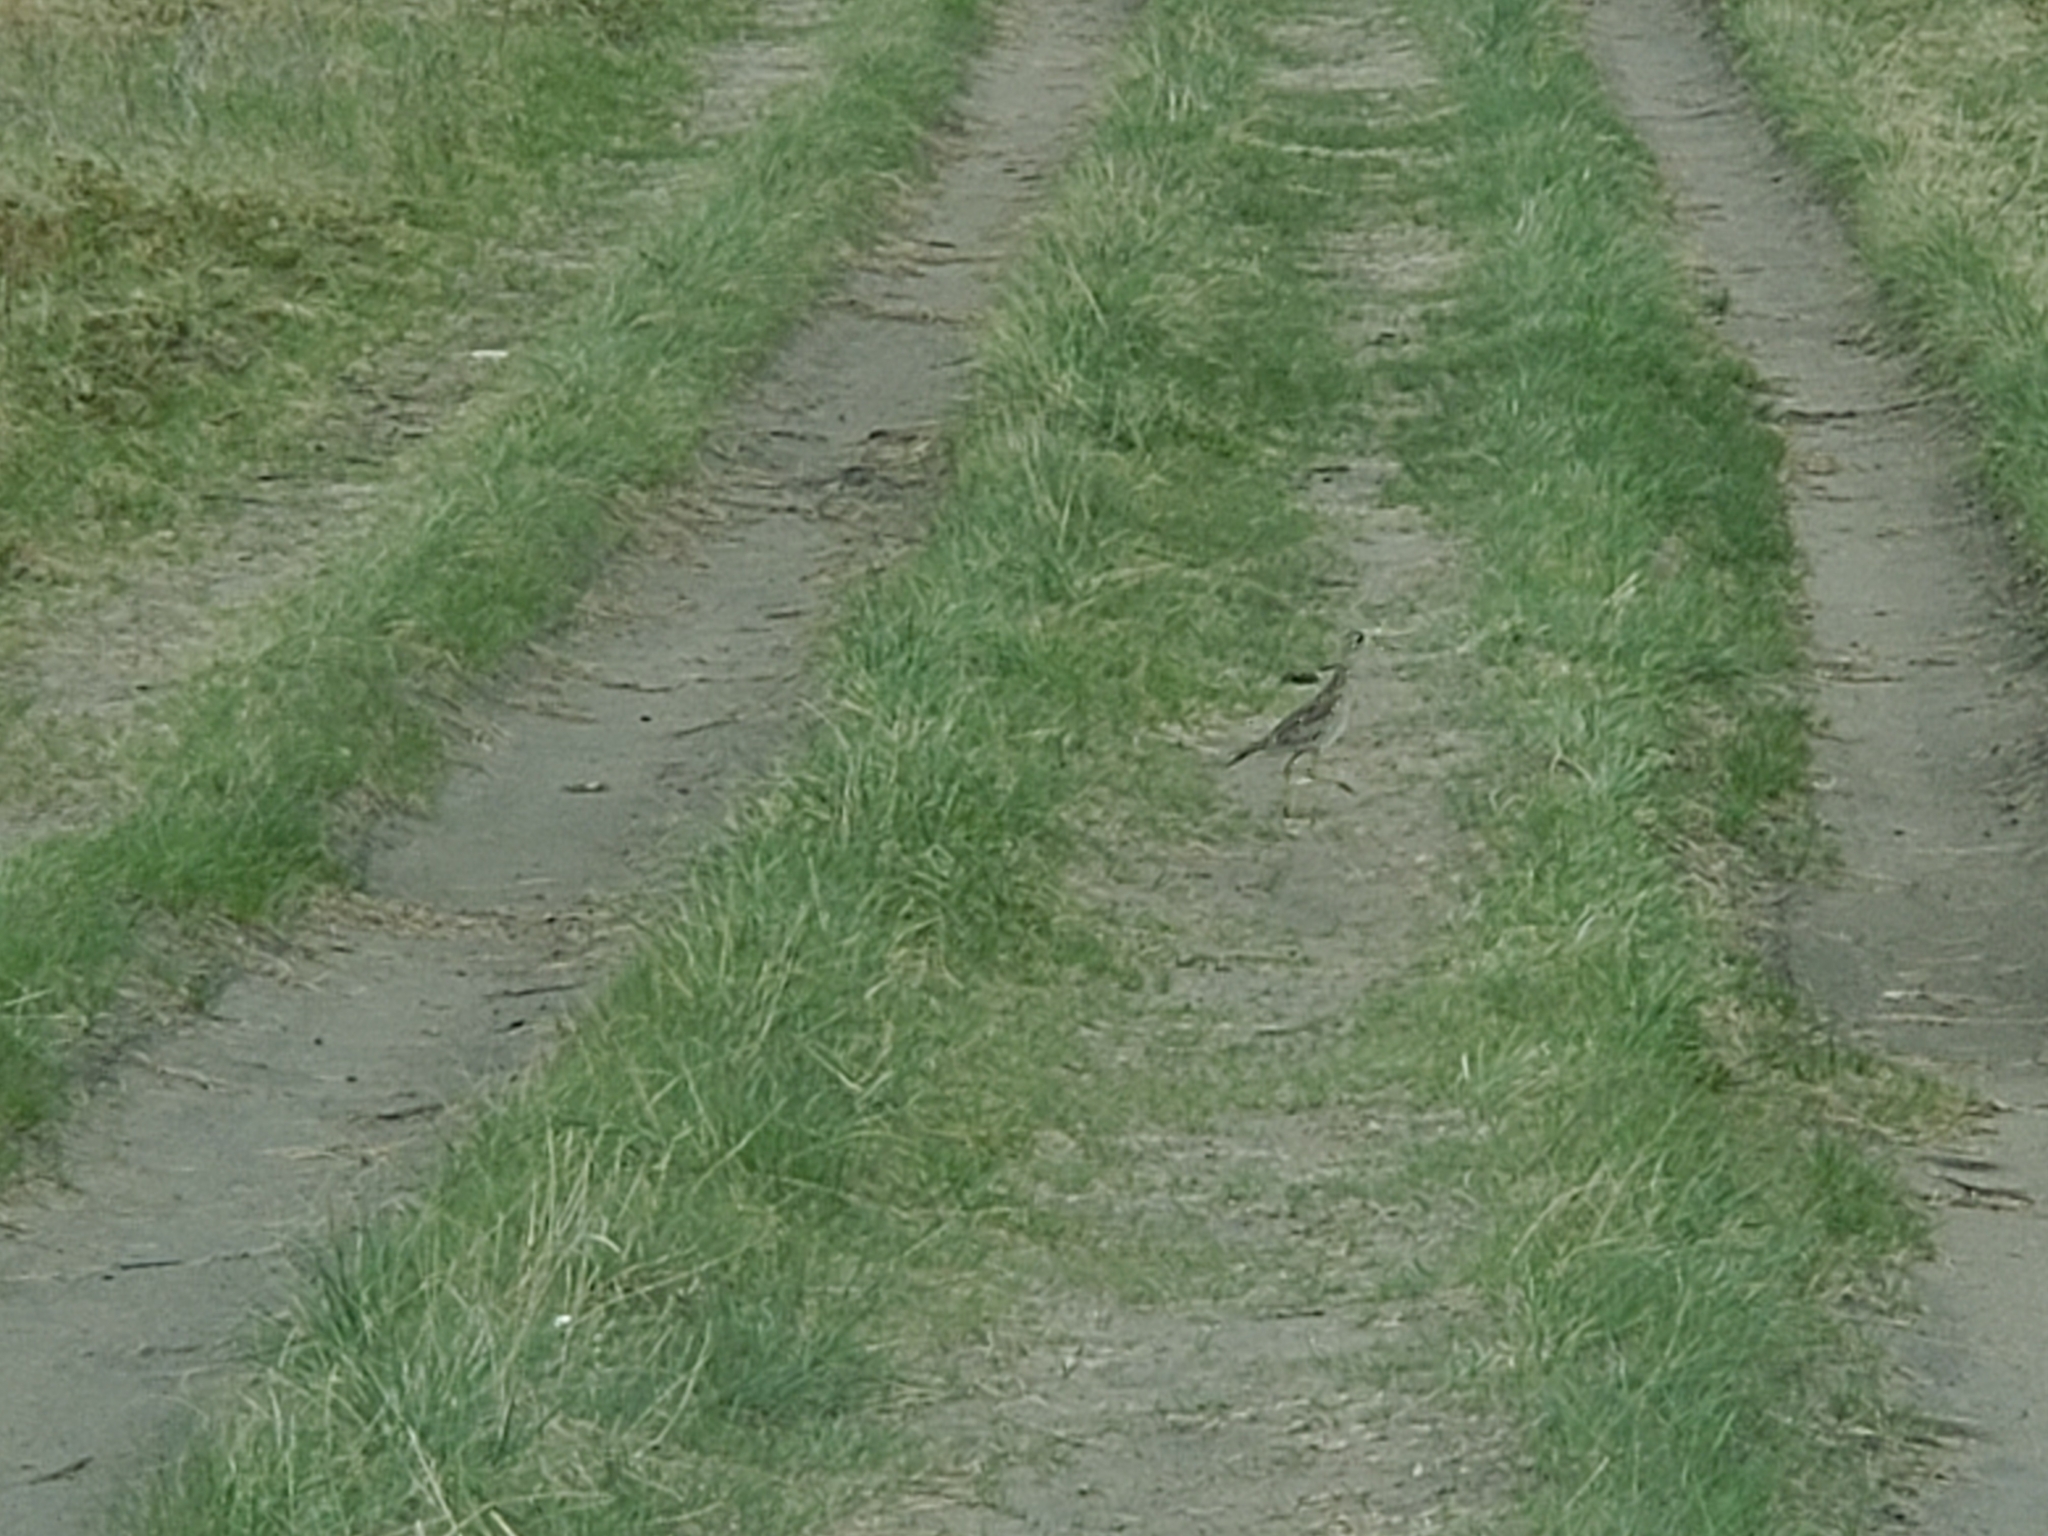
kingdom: Animalia
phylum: Chordata
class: Aves
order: Charadriiformes
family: Scolopacidae
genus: Bartramia
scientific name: Bartramia longicauda
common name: Upland sandpiper
